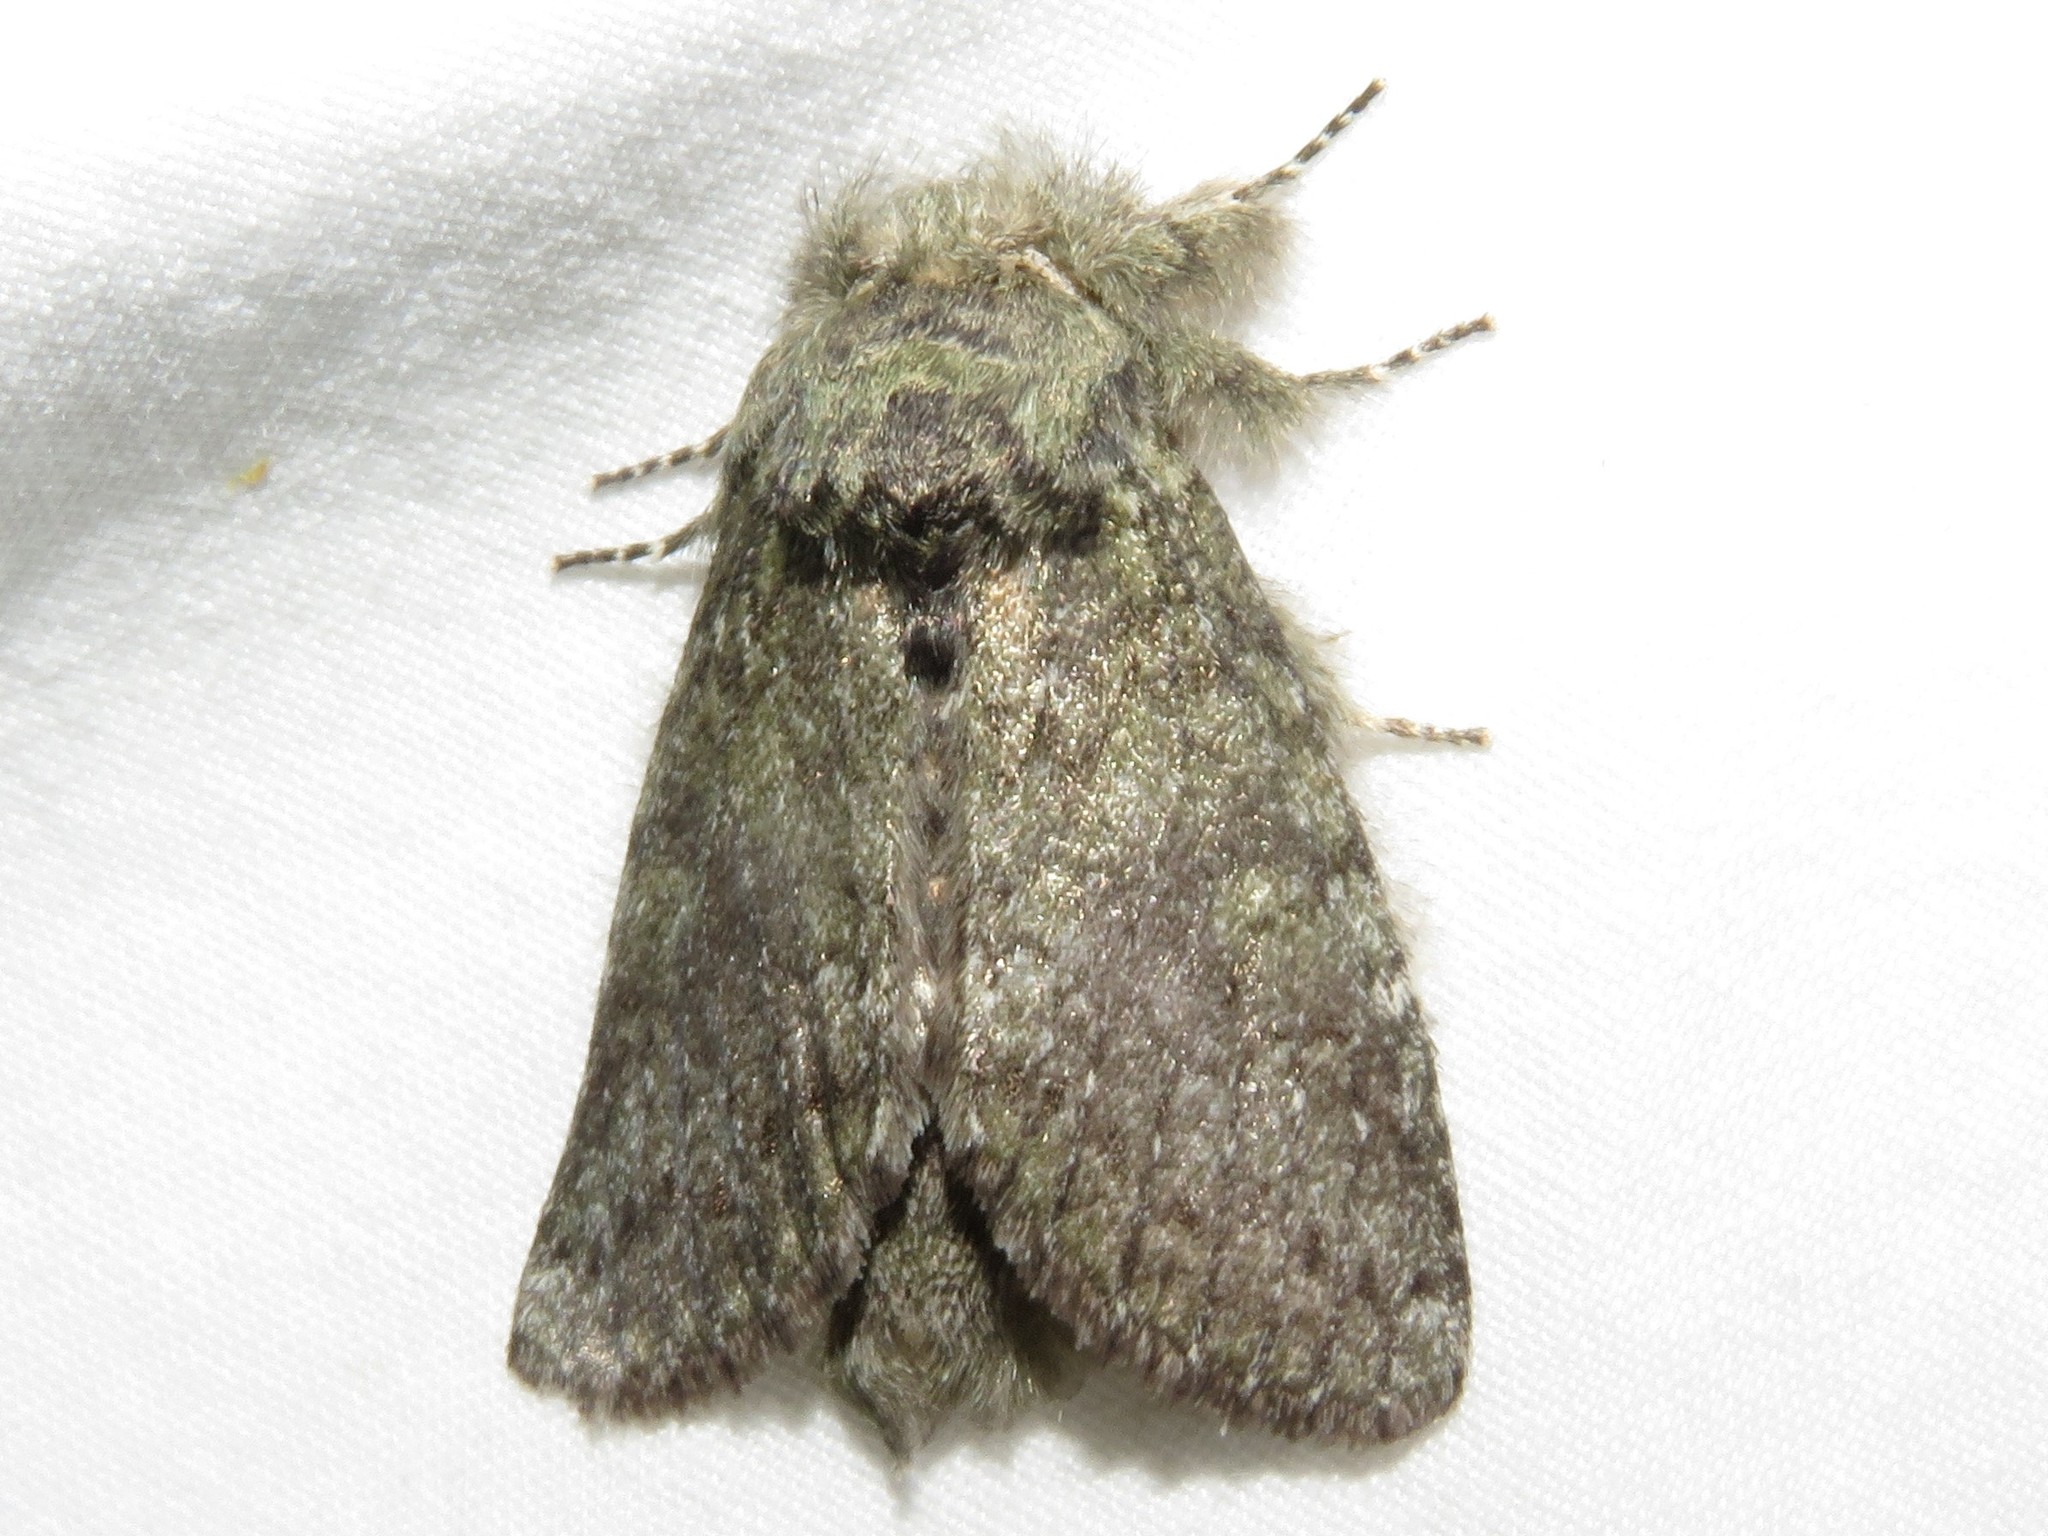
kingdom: Animalia
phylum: Arthropoda
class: Insecta
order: Lepidoptera
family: Notodontidae
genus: Disphragis
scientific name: Disphragis Cecrita guttivitta
